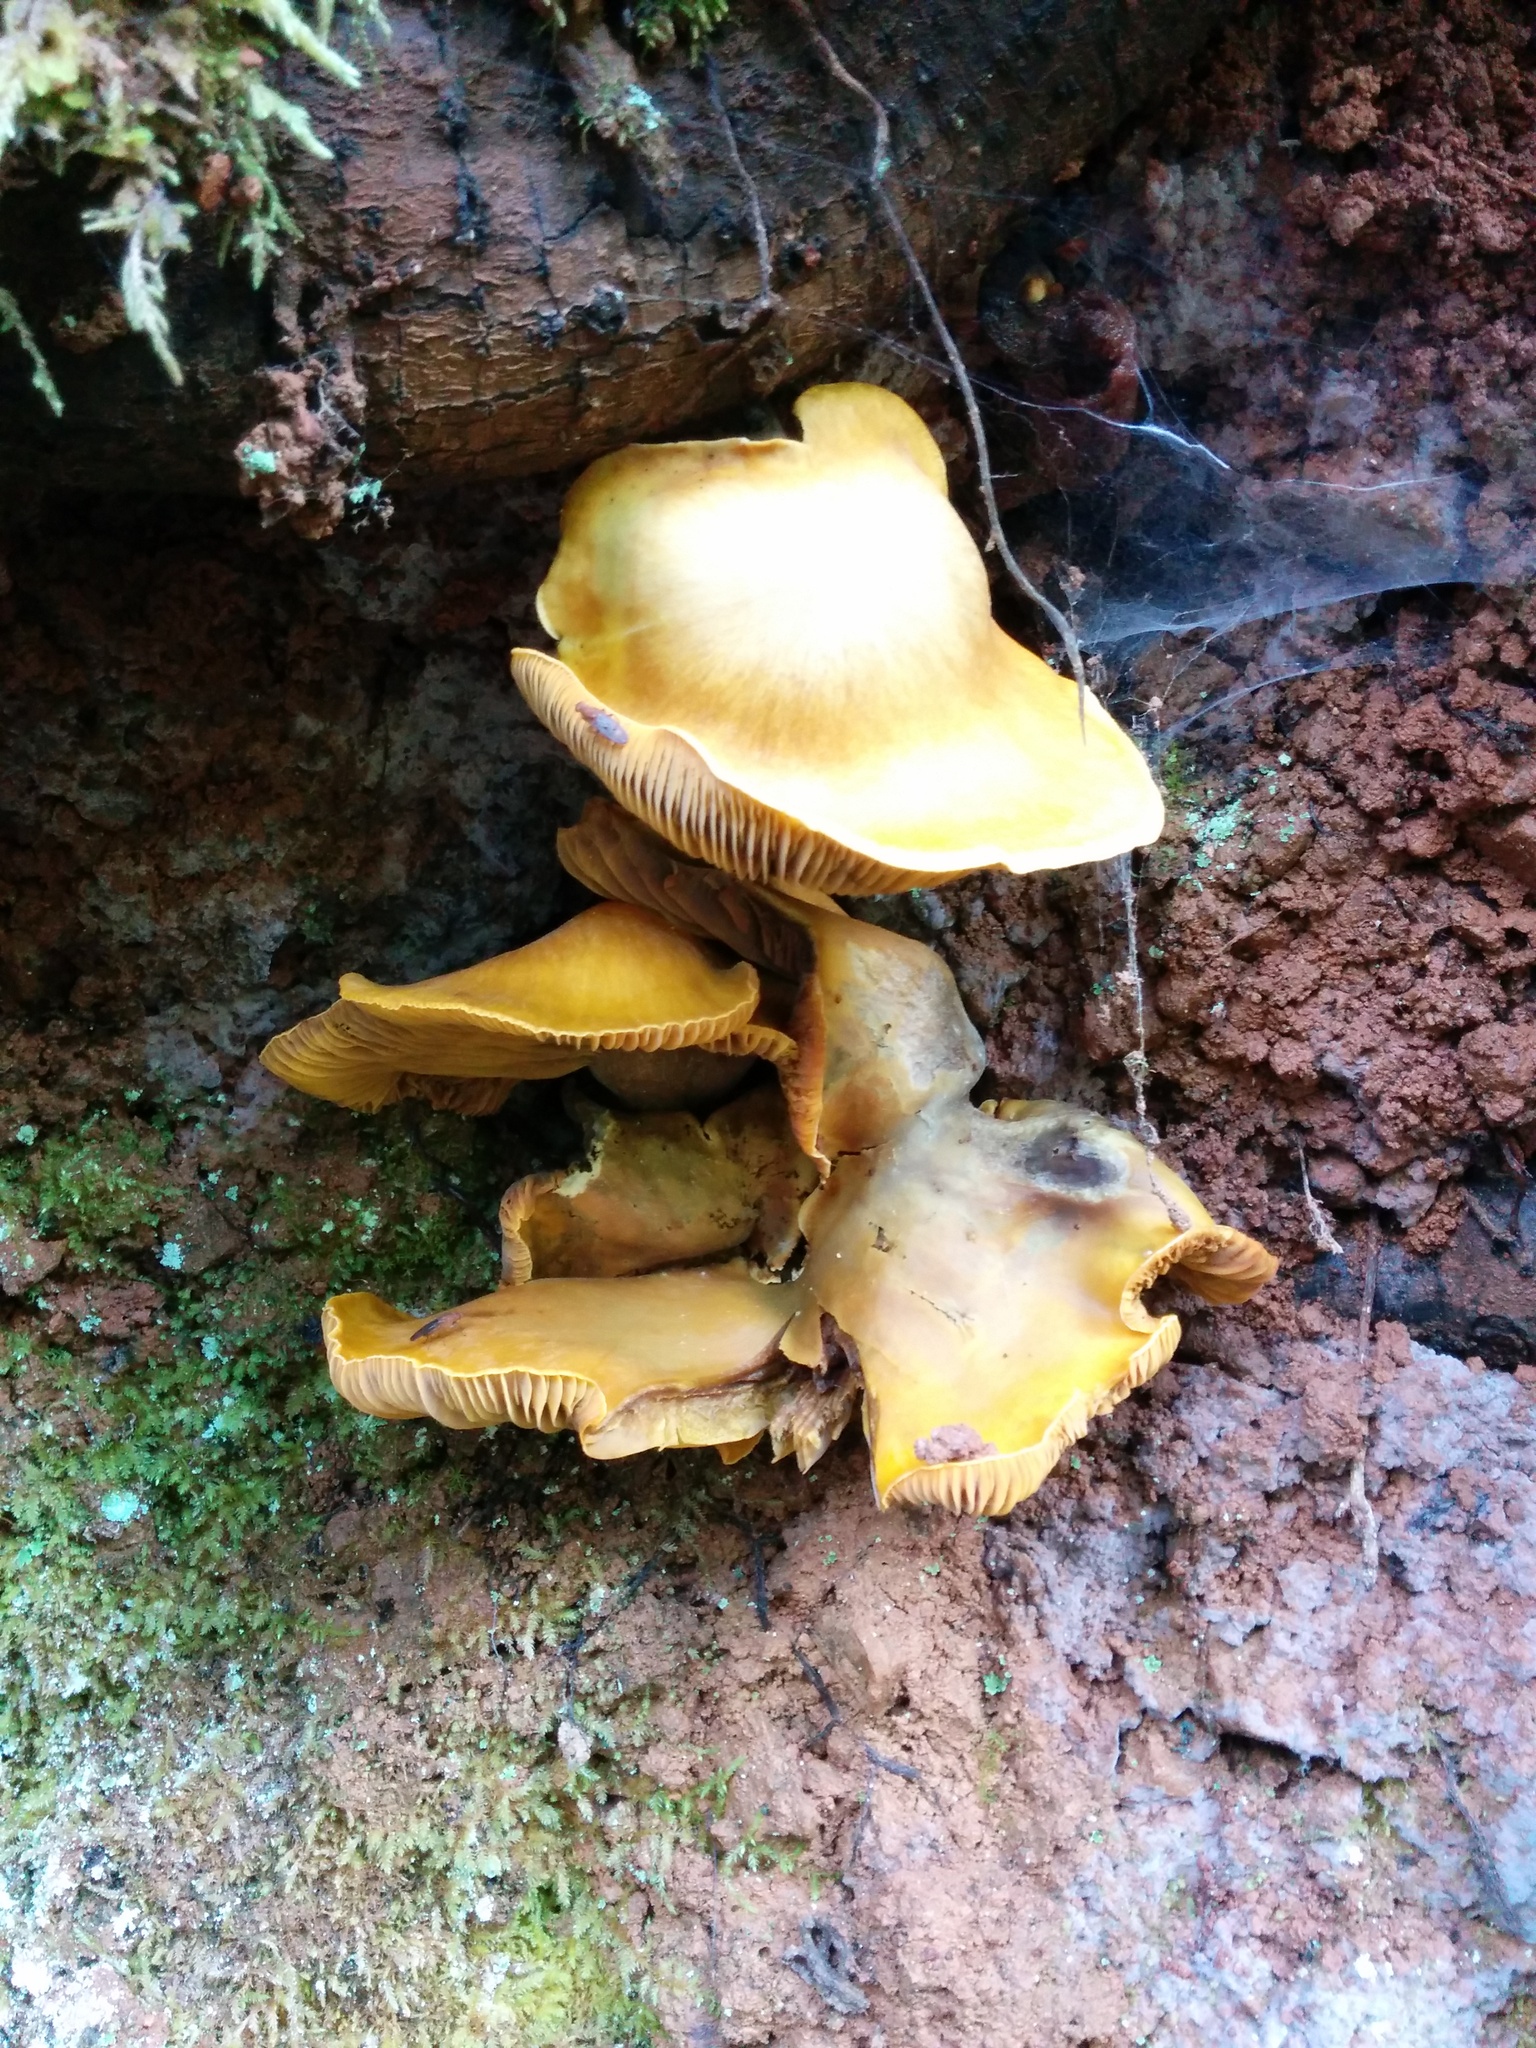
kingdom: Fungi
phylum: Basidiomycota
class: Agaricomycetes
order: Agaricales
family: Omphalotaceae
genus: Omphalotus
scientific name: Omphalotus olivascens
